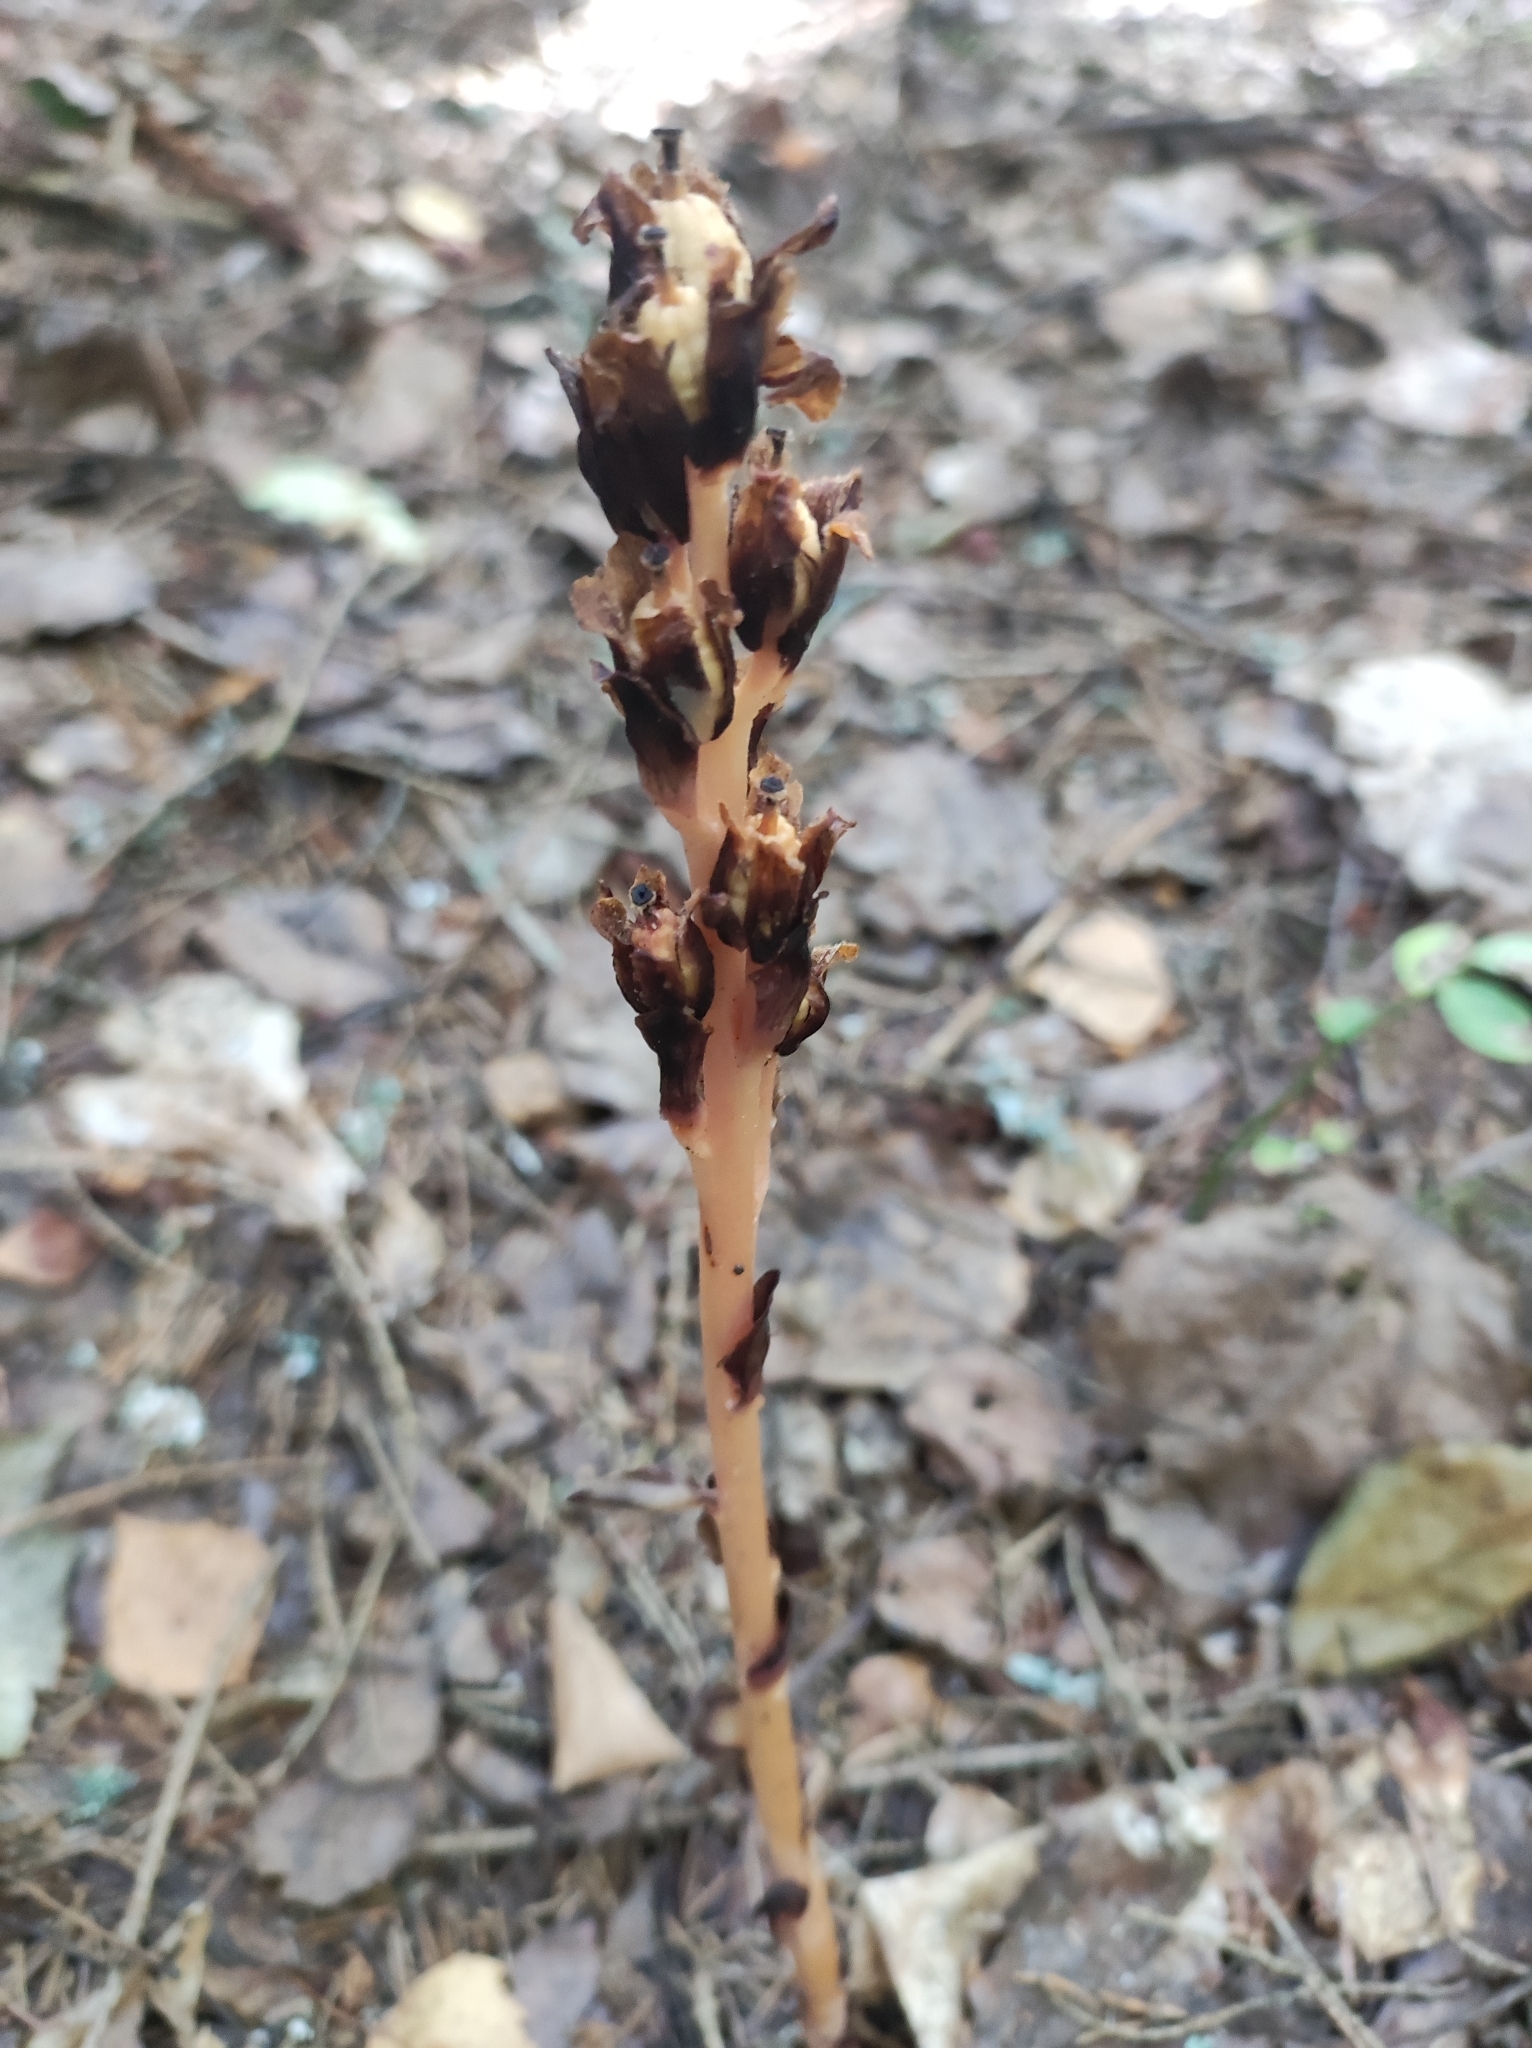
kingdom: Plantae
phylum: Tracheophyta
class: Magnoliopsida
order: Ericales
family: Ericaceae
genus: Hypopitys
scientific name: Hypopitys monotropa
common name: Yellow bird's-nest
